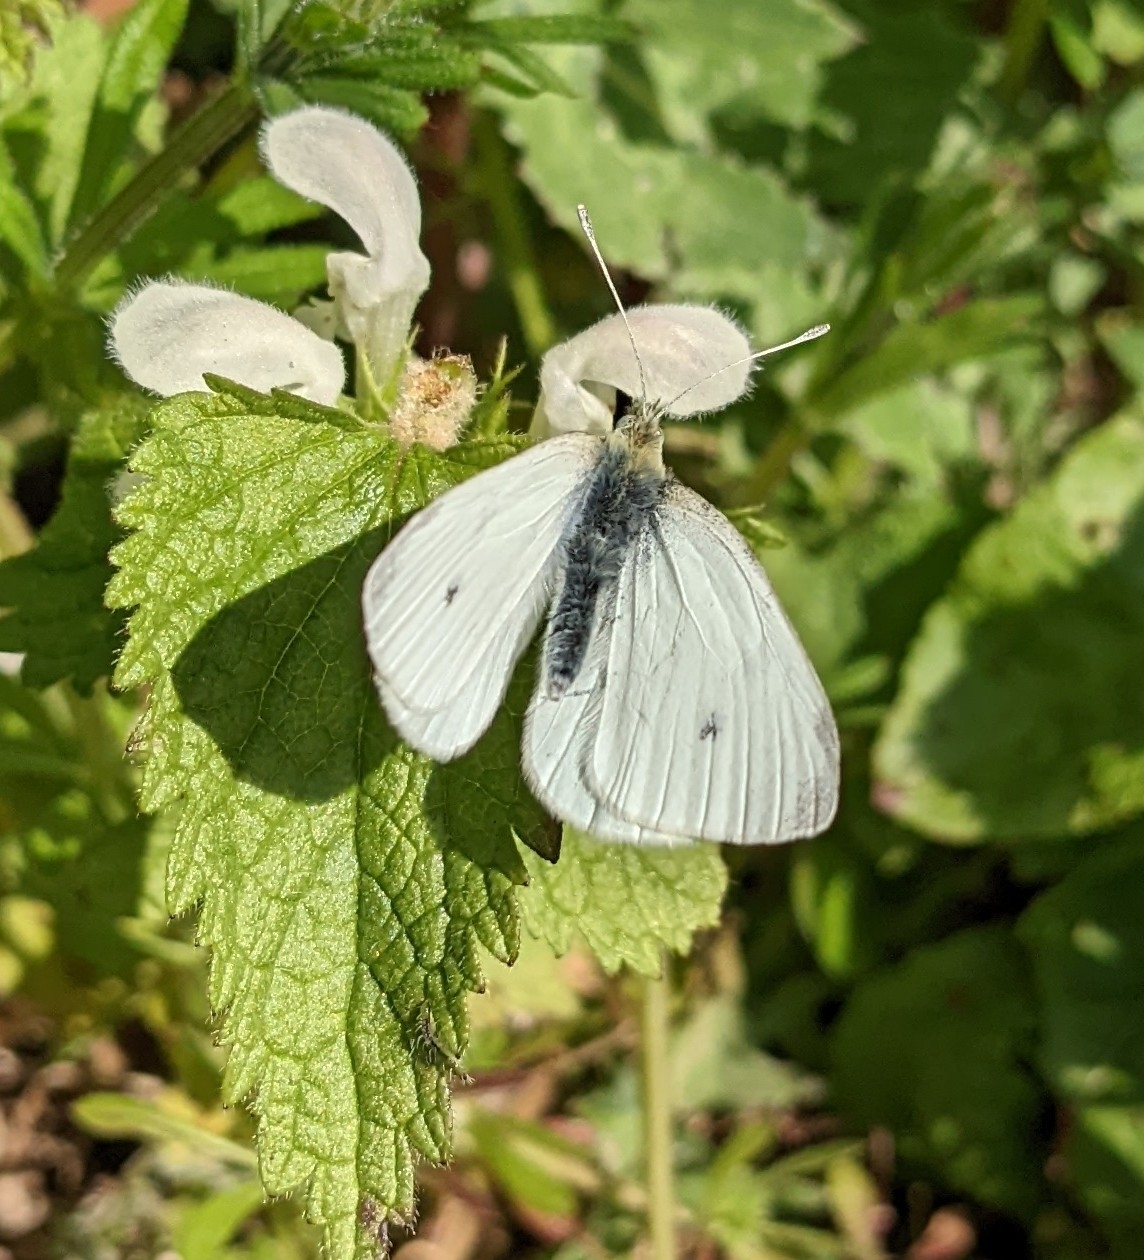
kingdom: Animalia
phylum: Arthropoda
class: Insecta
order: Lepidoptera
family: Pieridae
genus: Pieris
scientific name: Pieris rapae
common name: Small white
